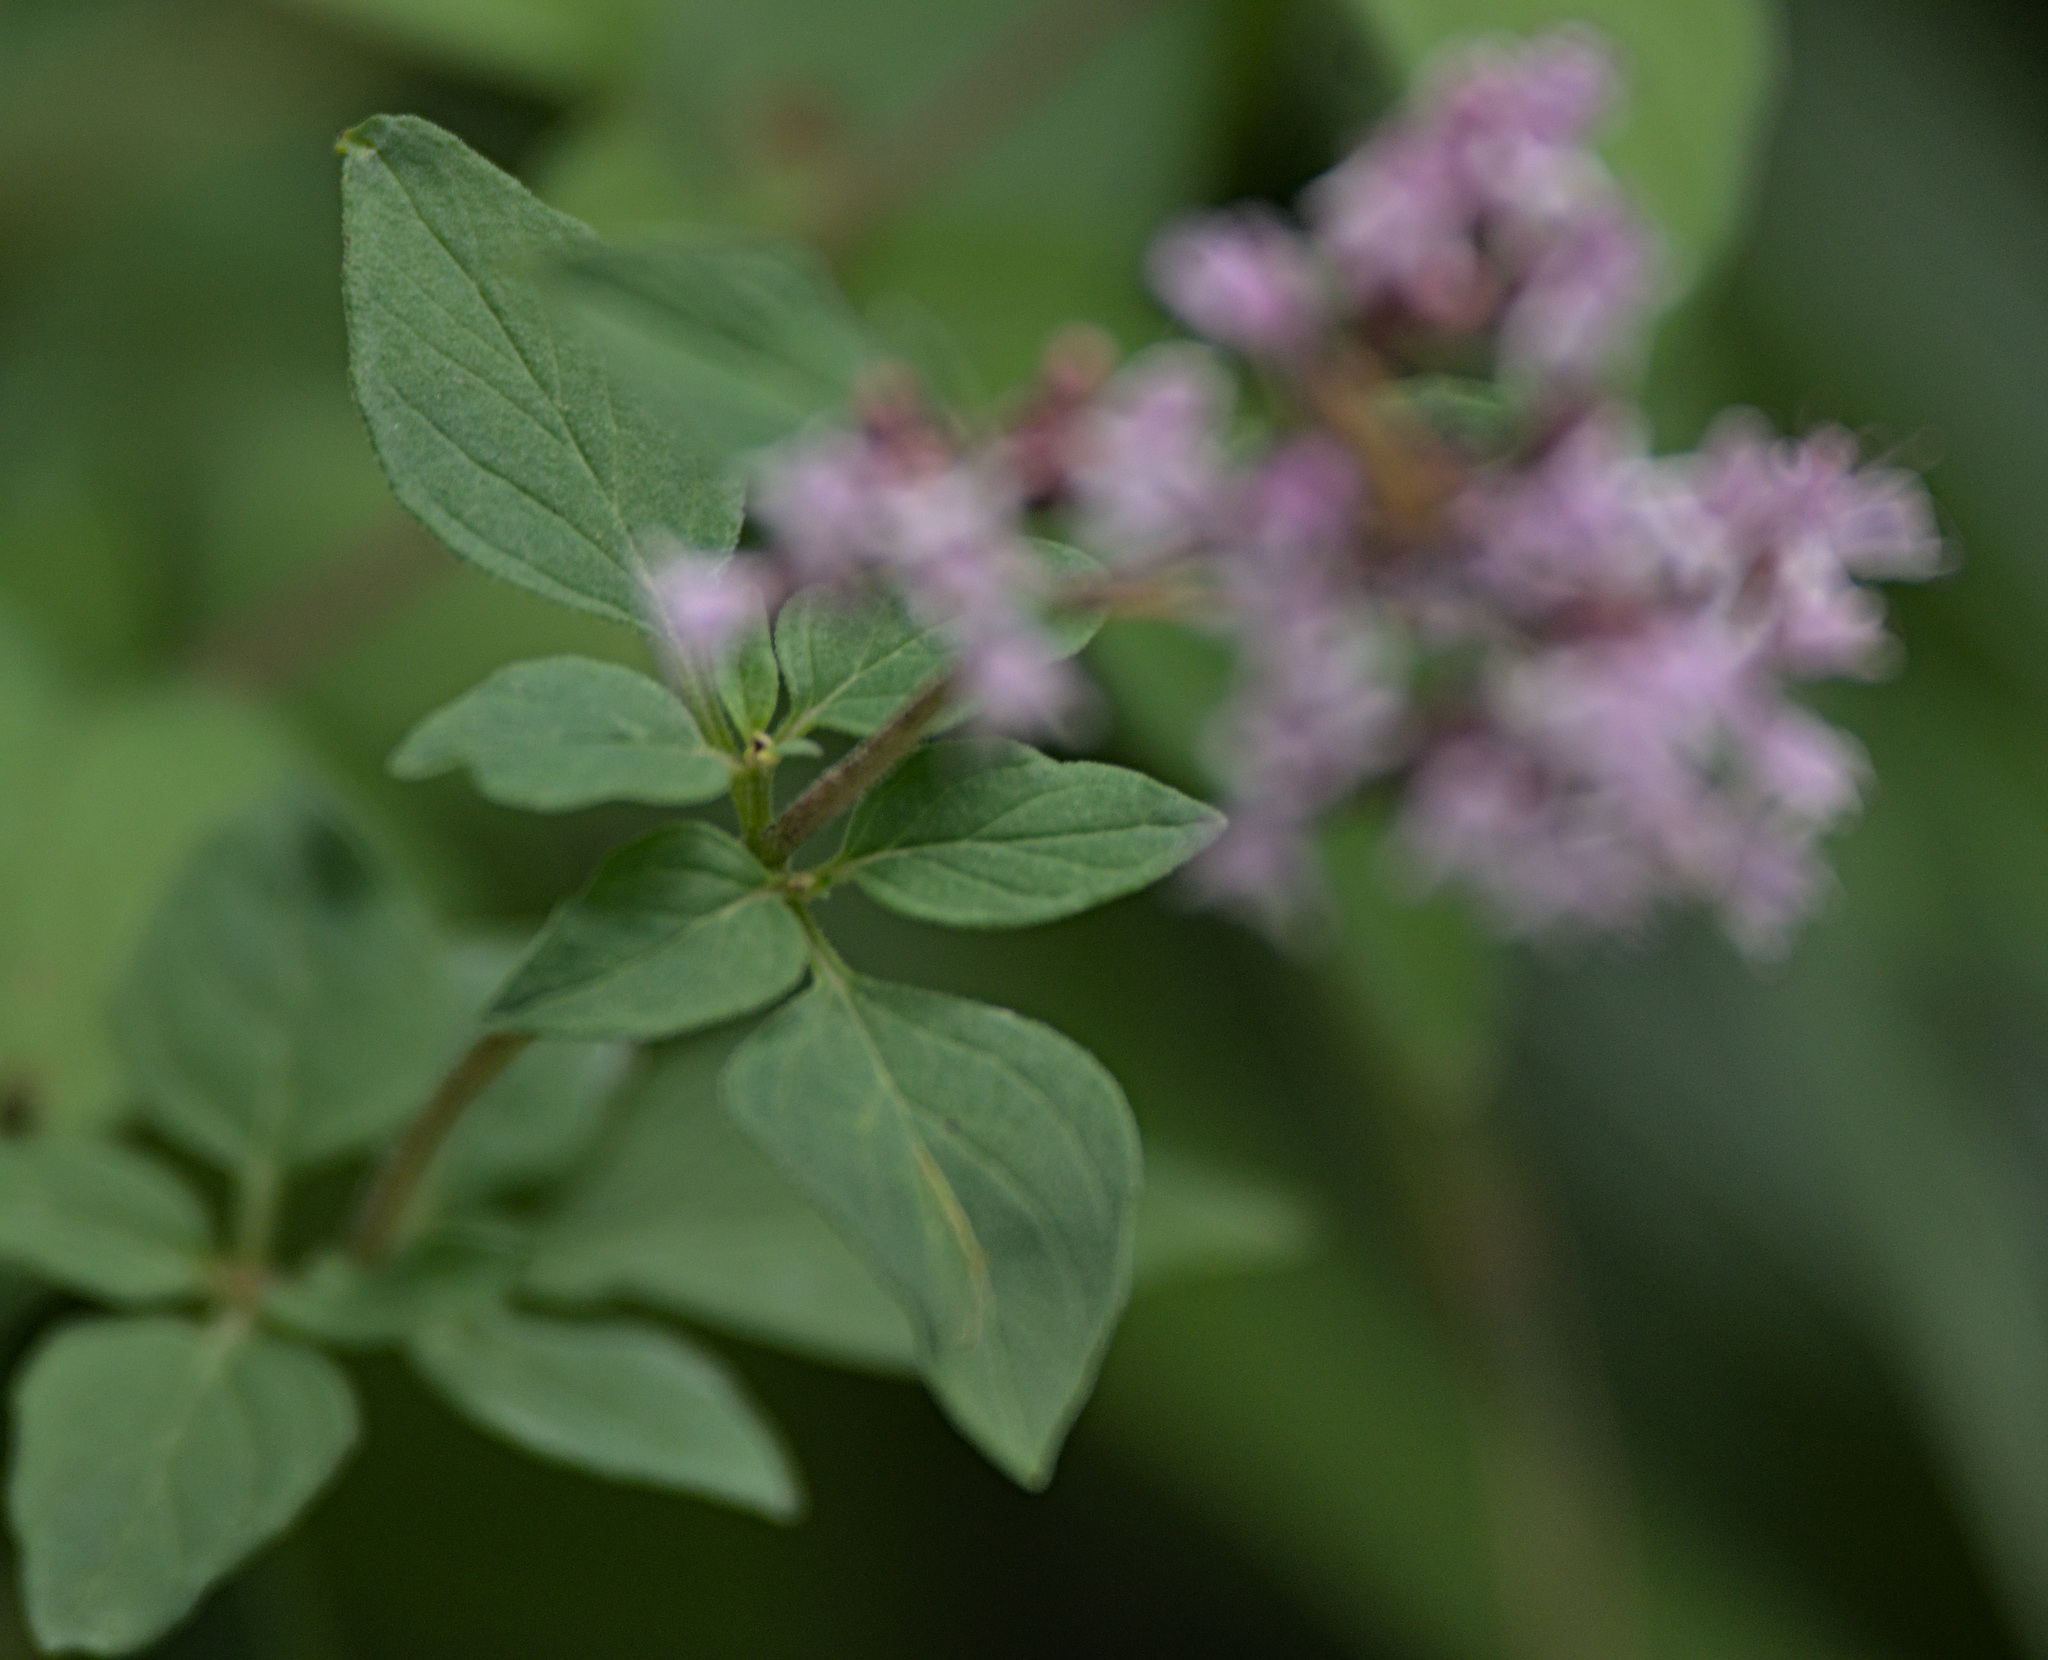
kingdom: Plantae
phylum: Tracheophyta
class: Magnoliopsida
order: Lamiales
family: Lamiaceae
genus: Origanum
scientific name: Origanum vulgare
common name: Wild marjoram
